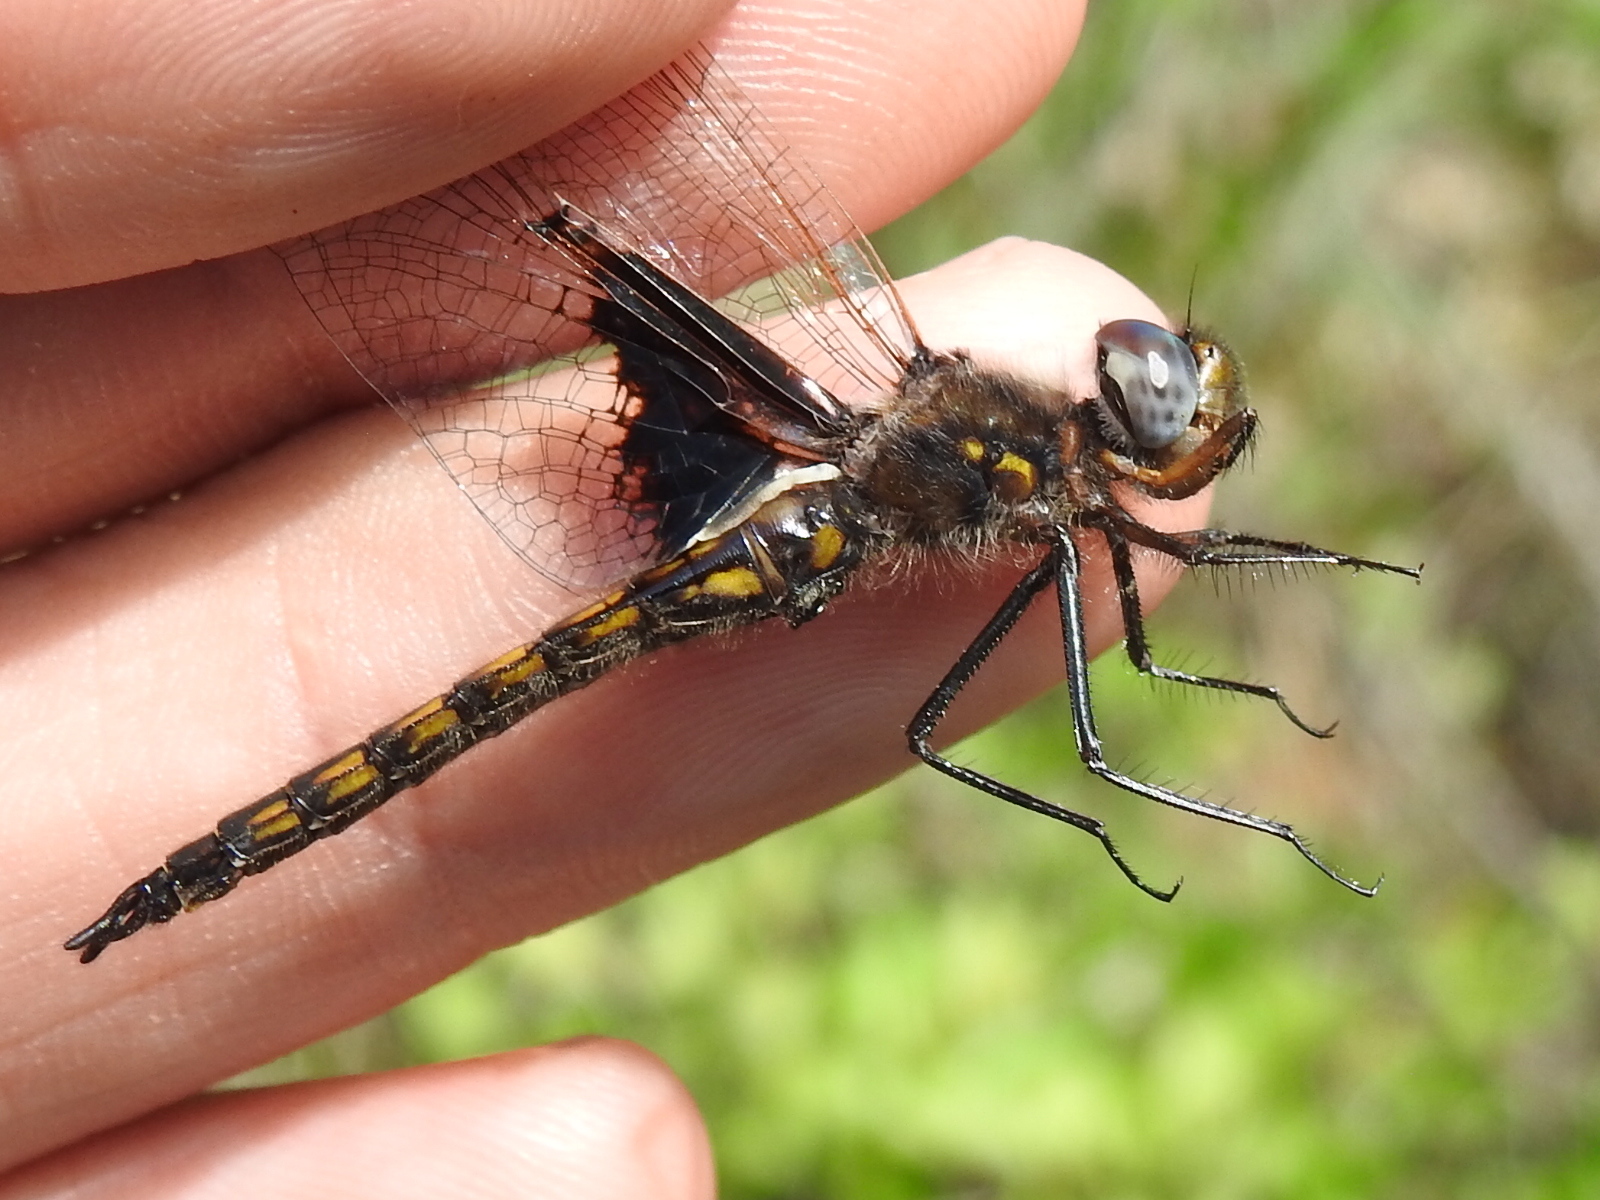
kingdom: Animalia
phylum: Arthropoda
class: Insecta
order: Odonata
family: Corduliidae
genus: Epitheca
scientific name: Epitheca semiaquea
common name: Mantled baskettail
